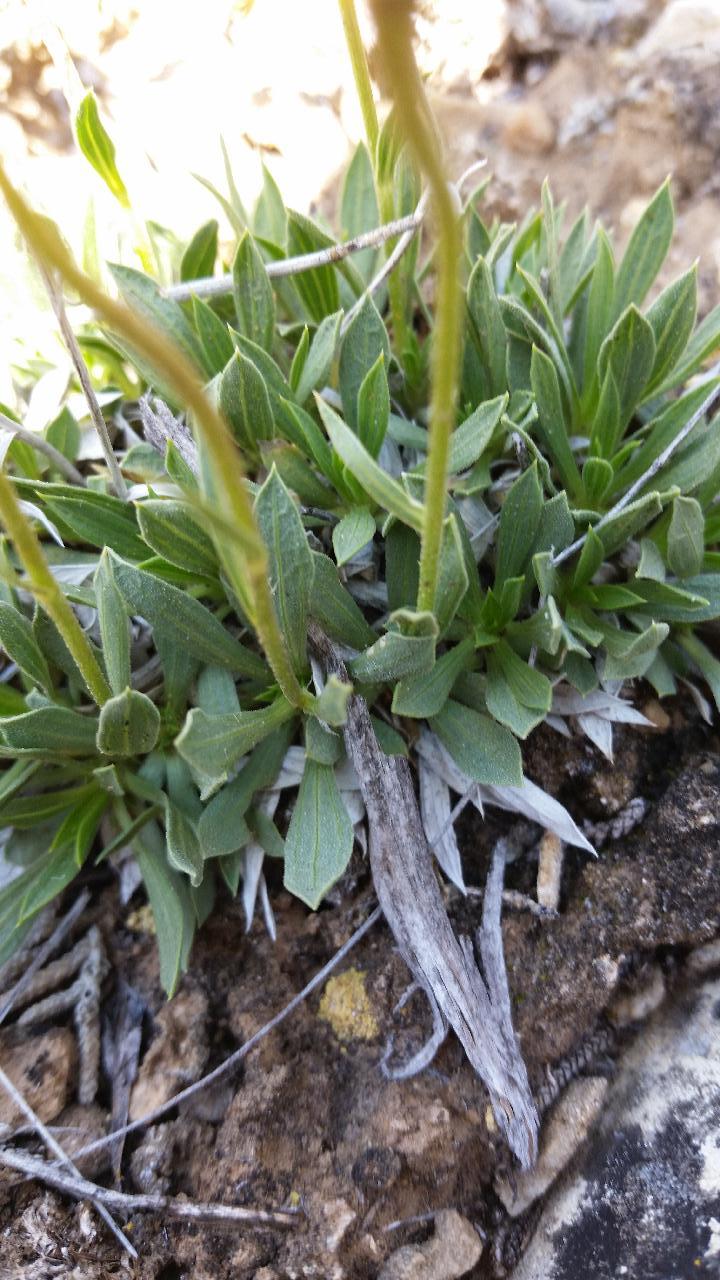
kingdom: Plantae
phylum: Tracheophyta
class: Magnoliopsida
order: Asterales
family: Asteraceae
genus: Stenotus
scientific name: Stenotus acaulis
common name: Stemless goldenweed
